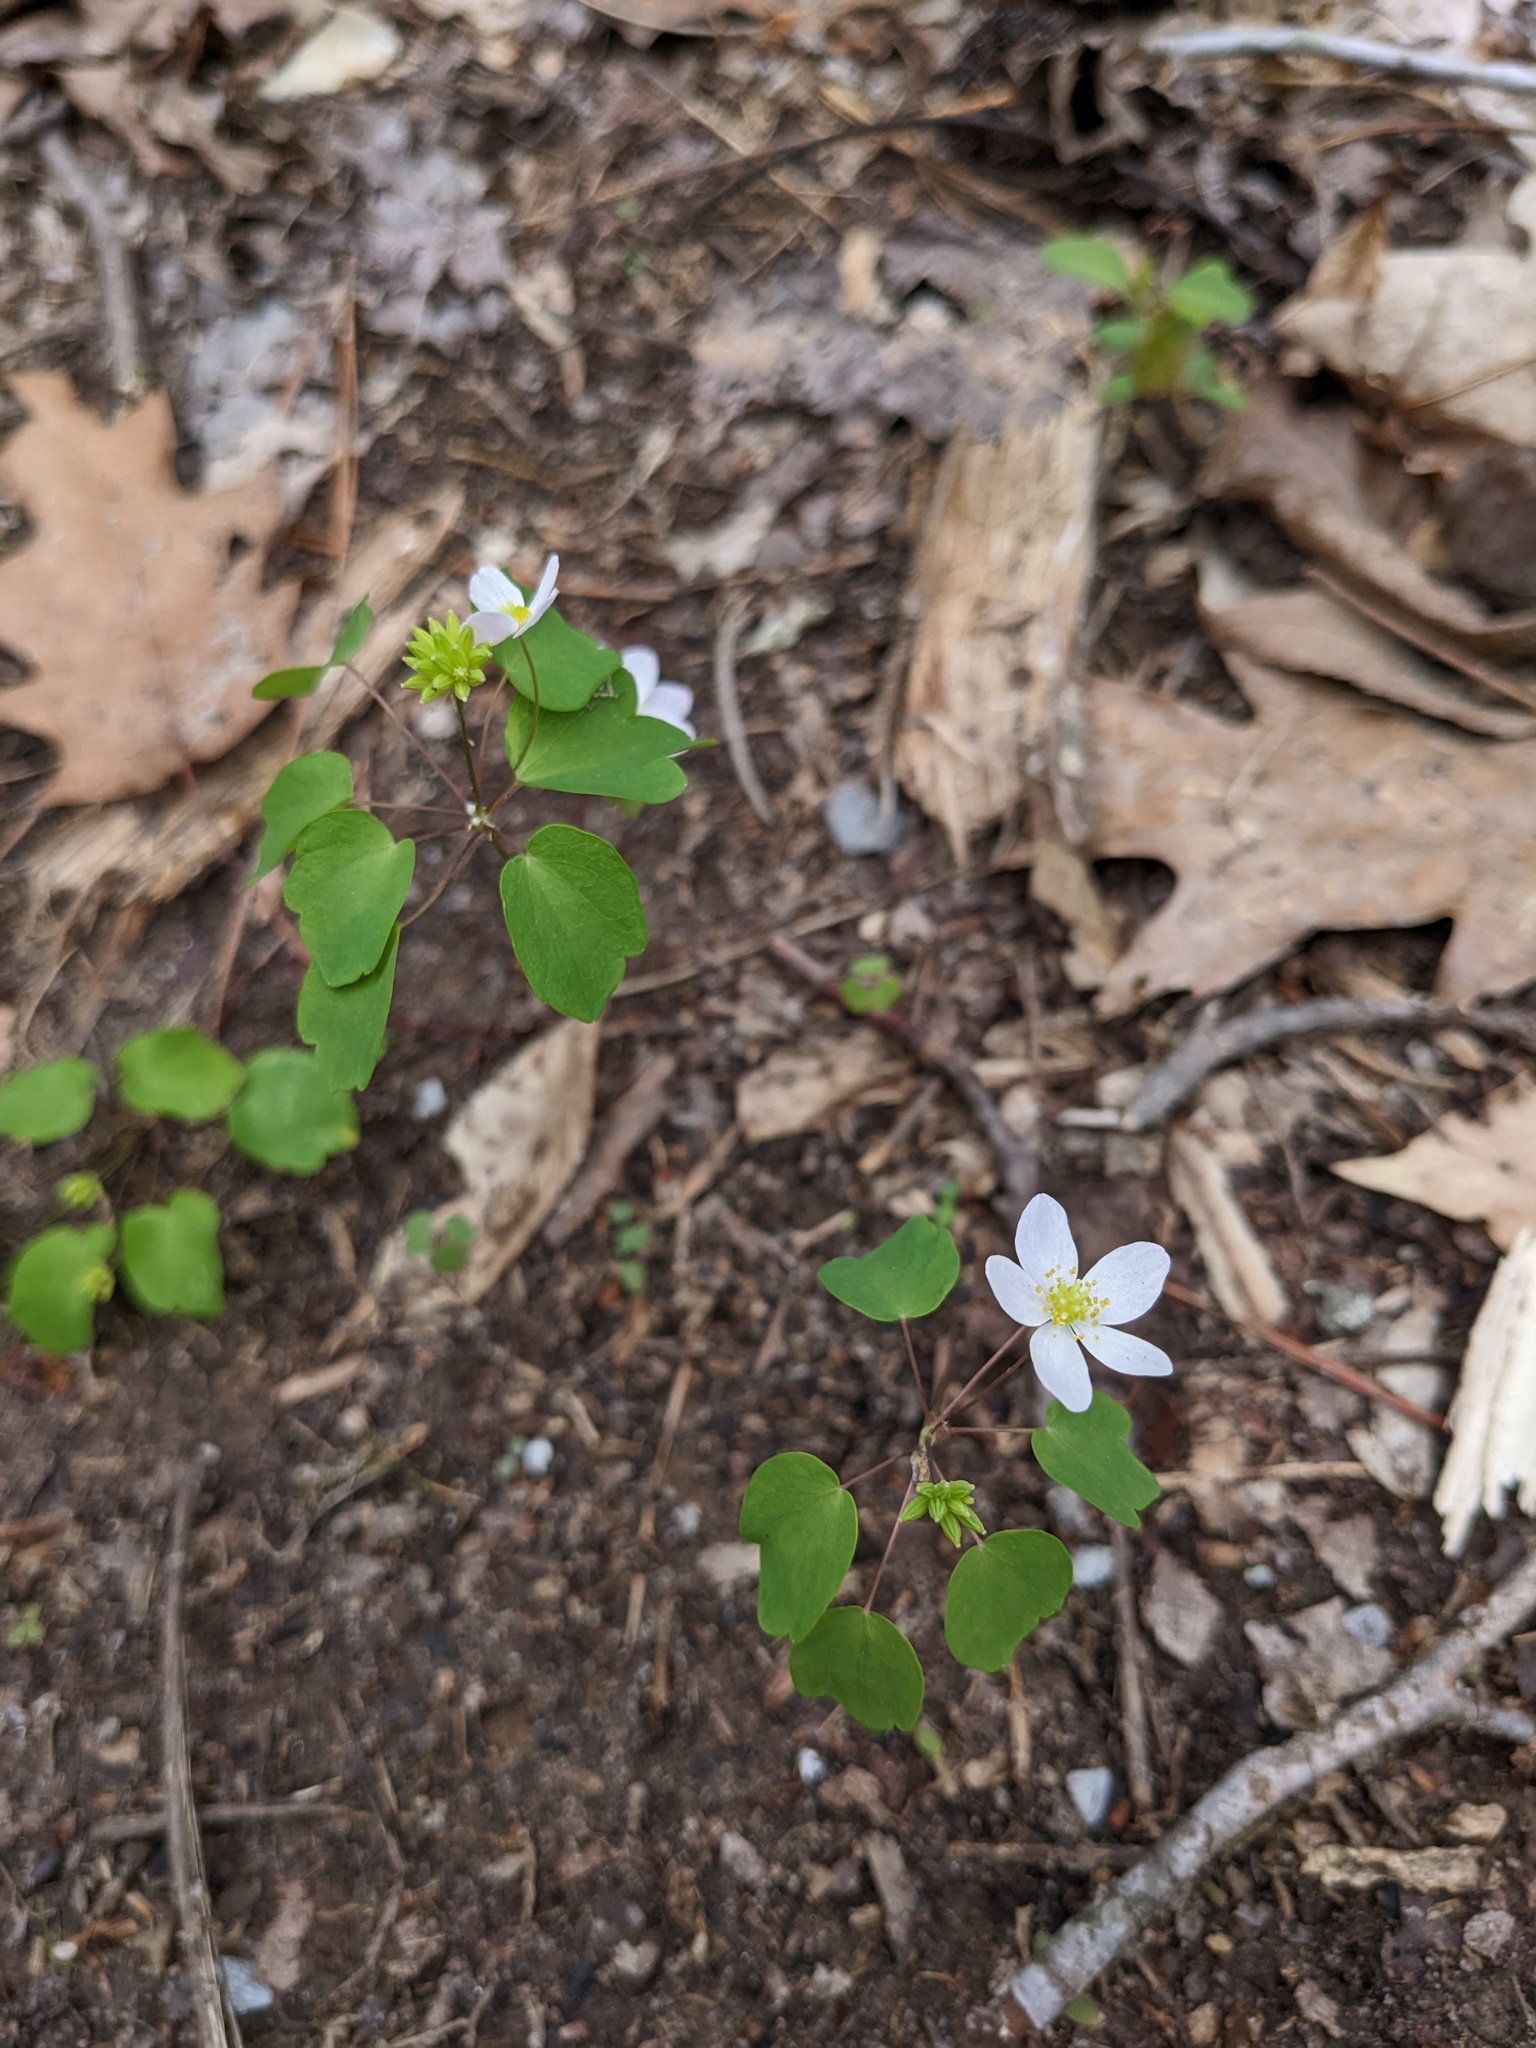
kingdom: Plantae
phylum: Tracheophyta
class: Magnoliopsida
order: Ranunculales
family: Ranunculaceae
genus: Thalictrum
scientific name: Thalictrum thalictroides
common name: Rue-anemone
